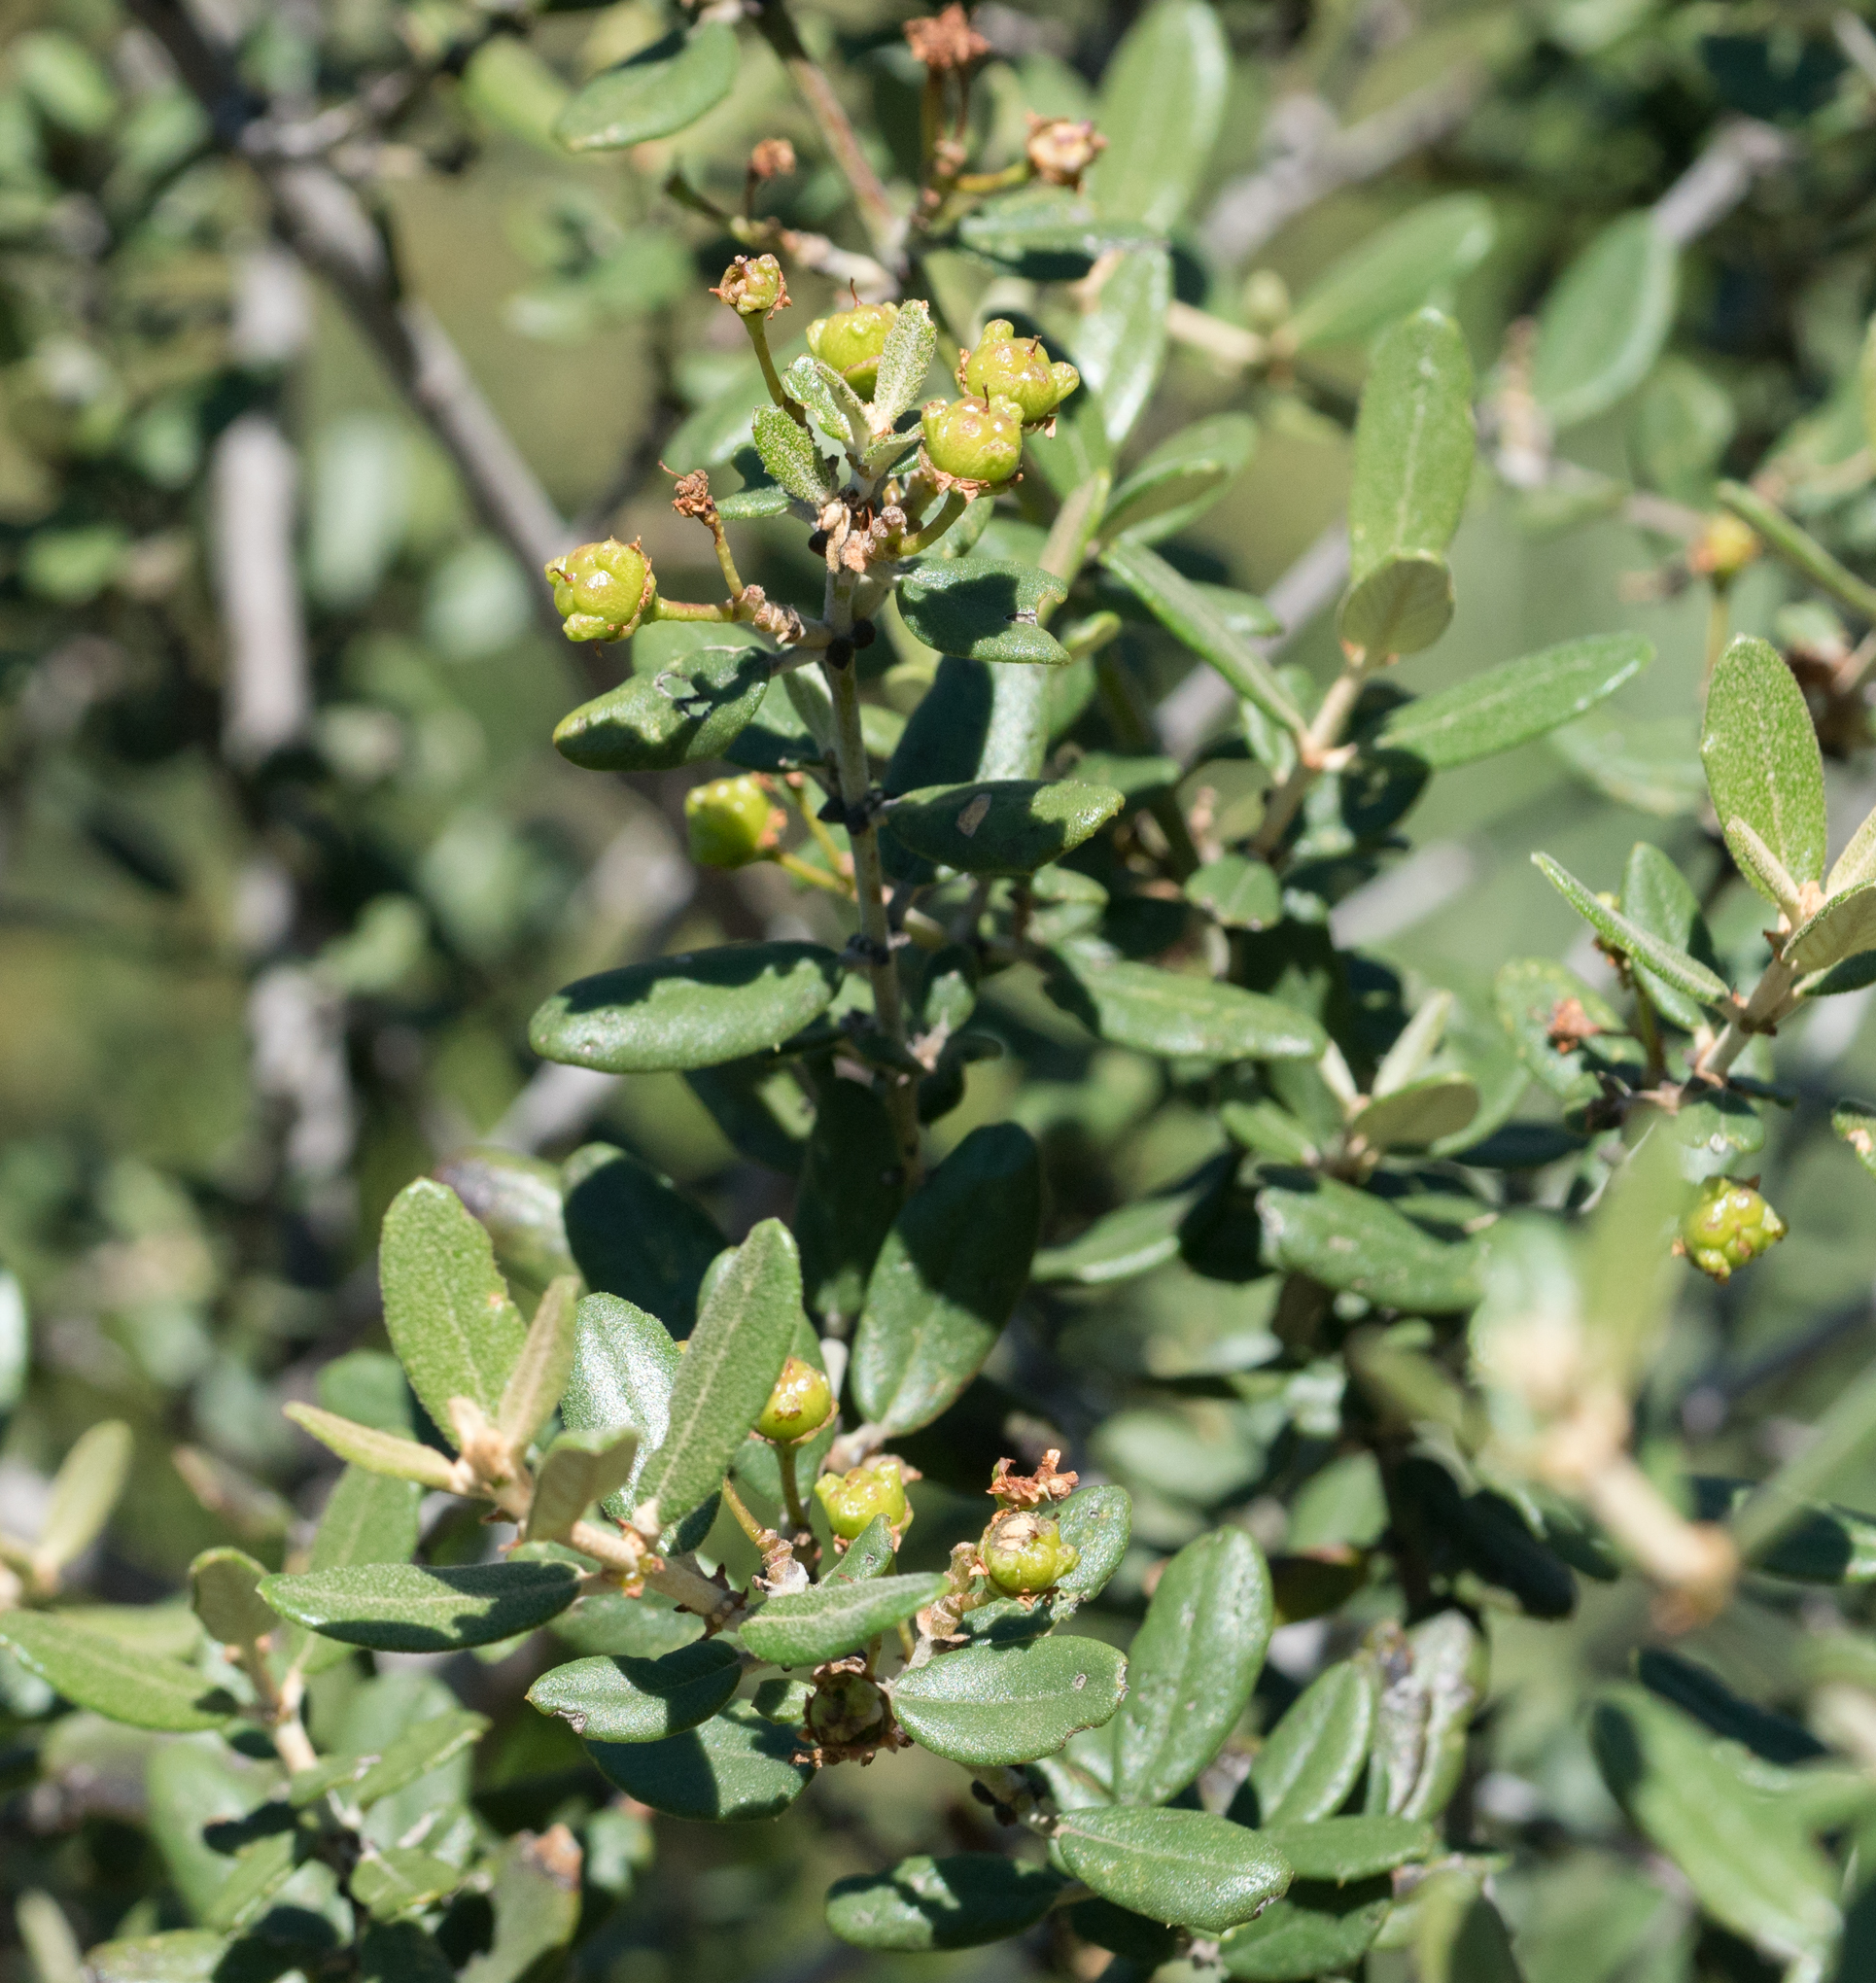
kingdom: Plantae
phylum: Tracheophyta
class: Magnoliopsida
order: Rosales
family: Rhamnaceae
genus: Ceanothus
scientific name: Ceanothus crassifolius
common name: Hoaryleaf ceanothus
